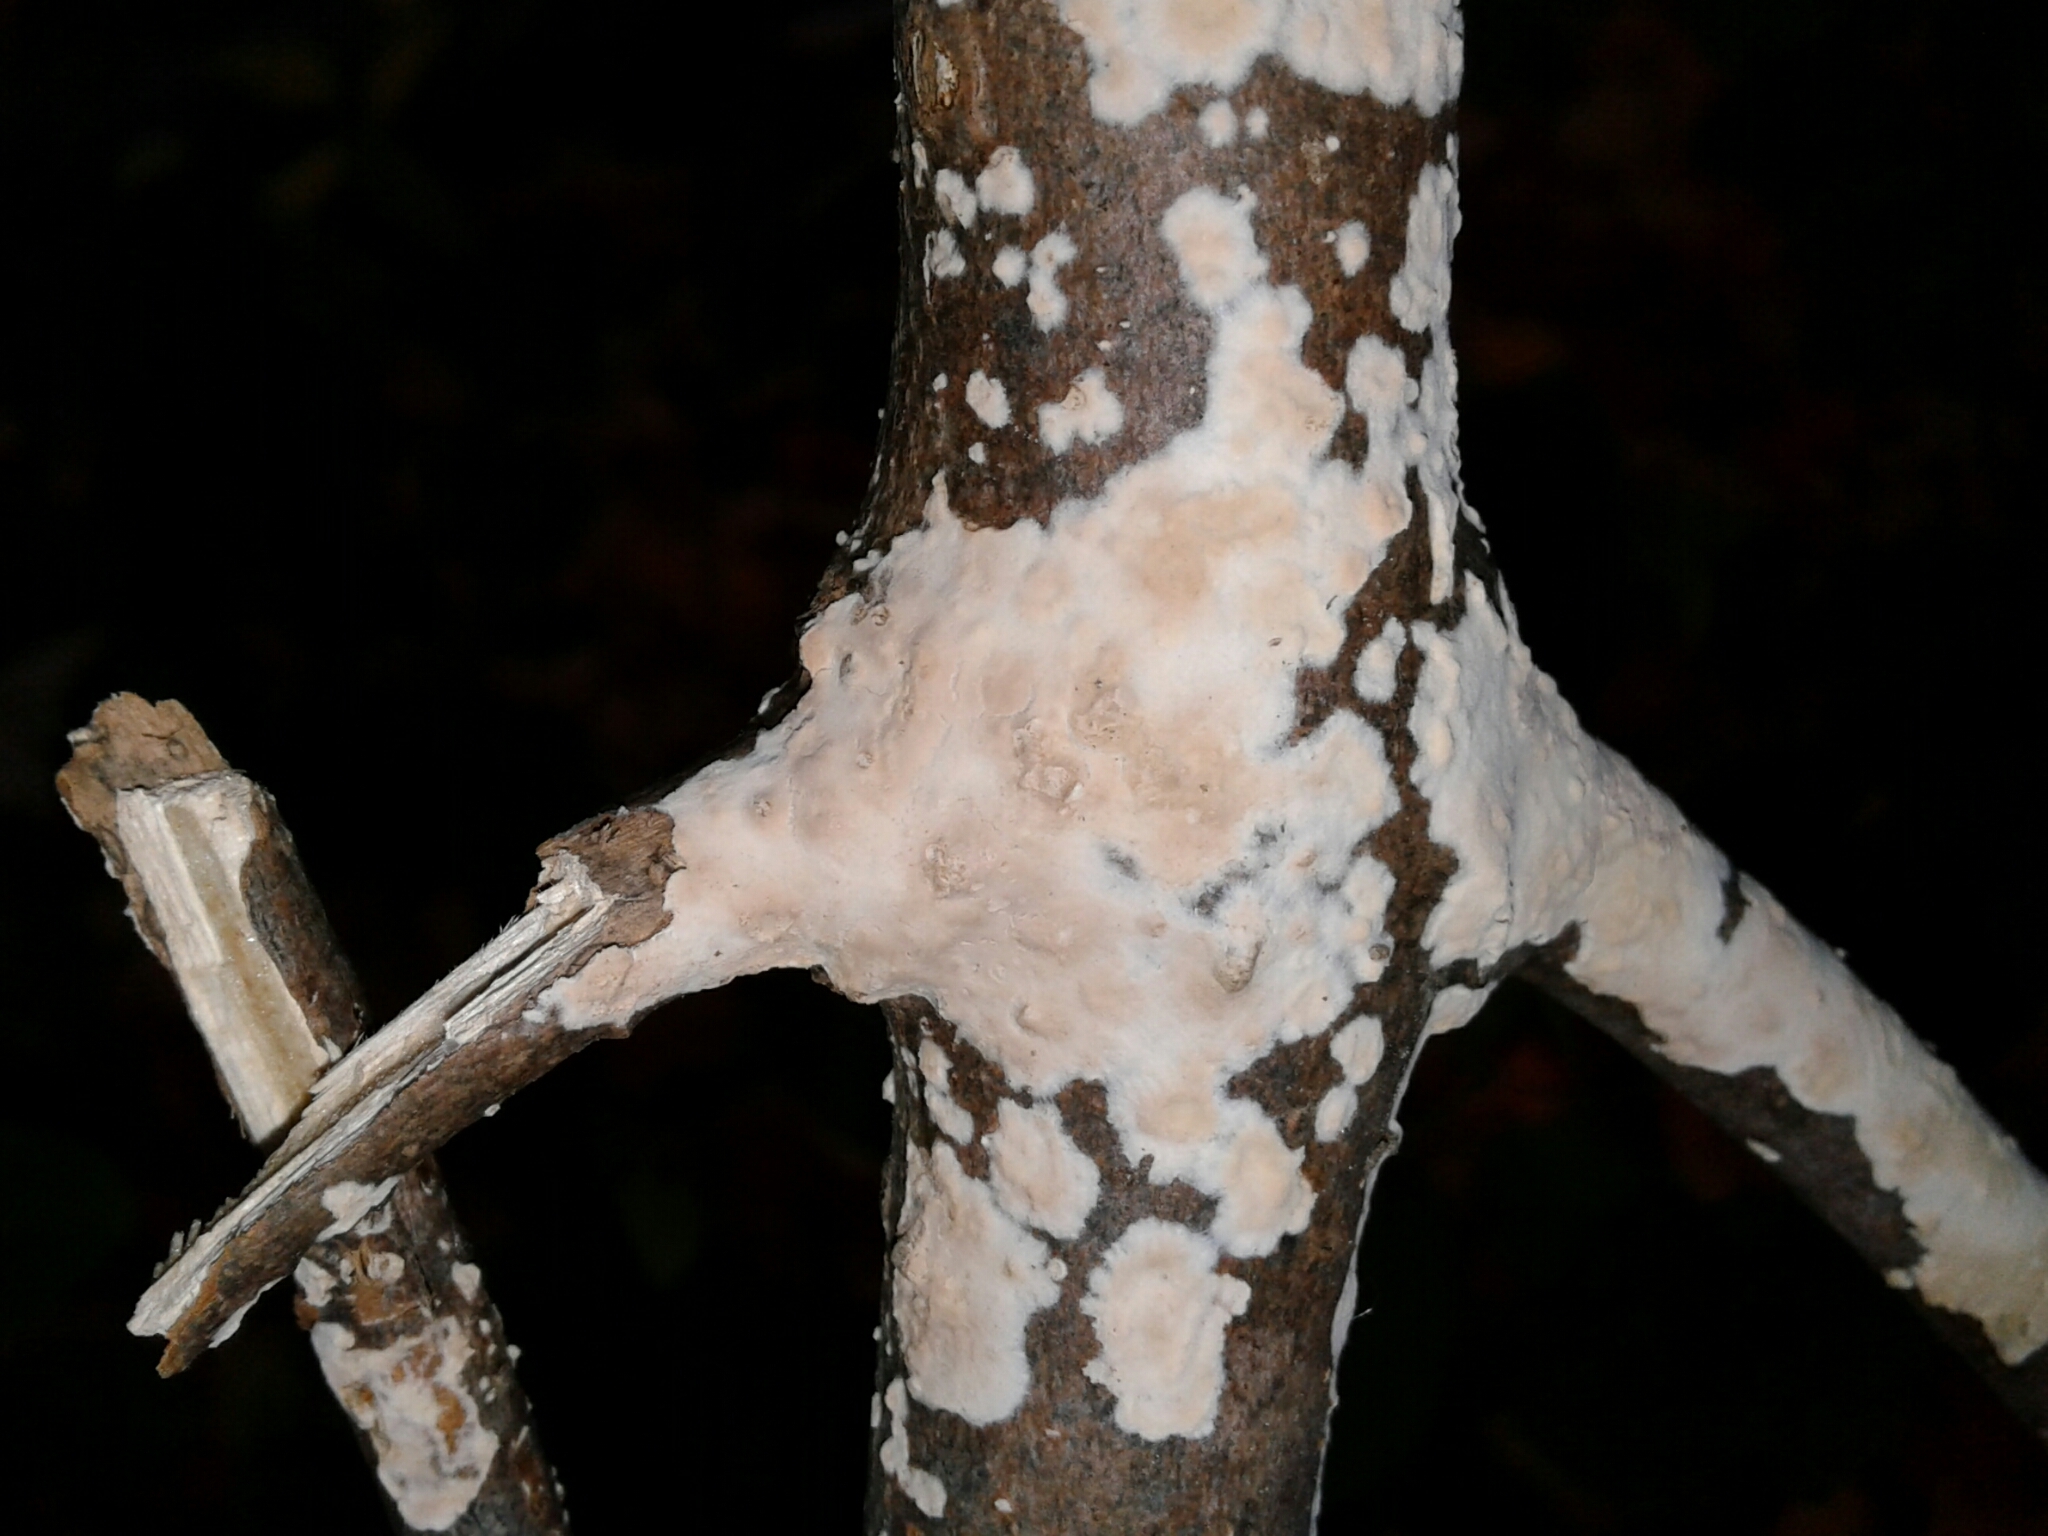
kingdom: Fungi
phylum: Basidiomycota
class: Agaricomycetes
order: Polyporales
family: Irpicaceae
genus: Irpex
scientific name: Irpex lacteus
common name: Milk-white toothed polypore
